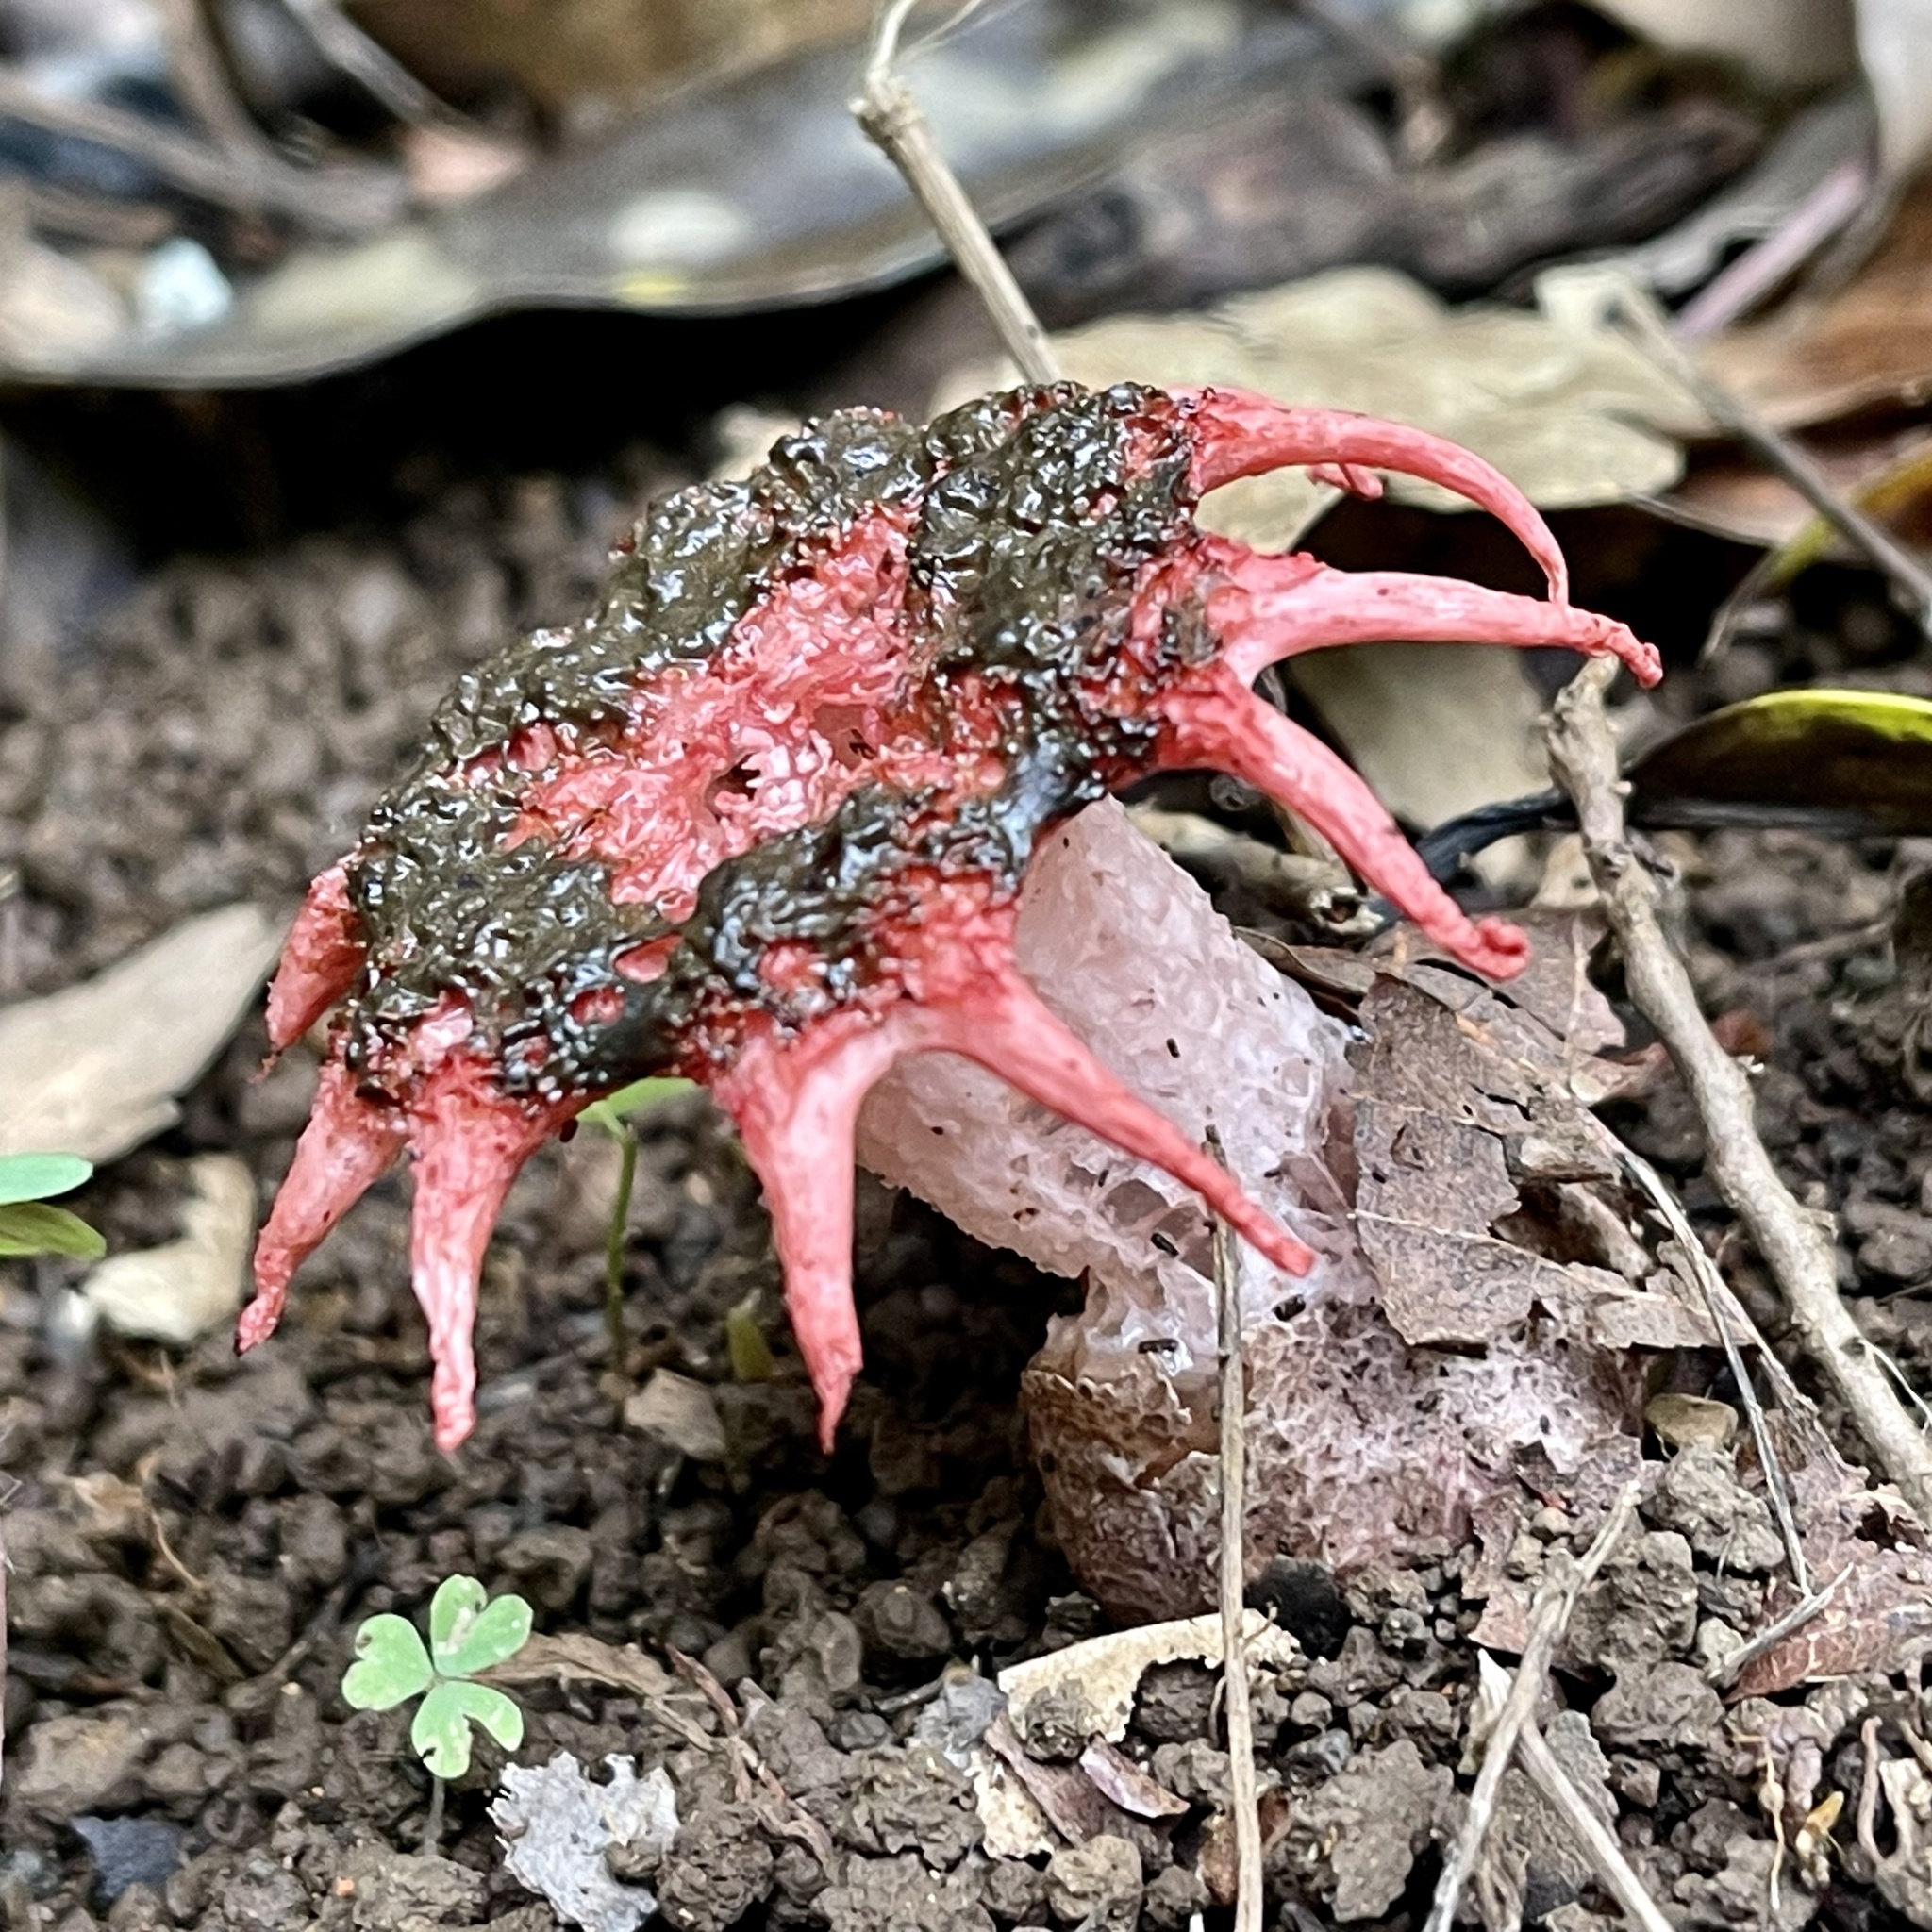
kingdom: Fungi
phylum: Basidiomycota
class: Agaricomycetes
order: Phallales
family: Phallaceae
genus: Aseroe
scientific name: Aseroe rubra
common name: Starfish fungus
